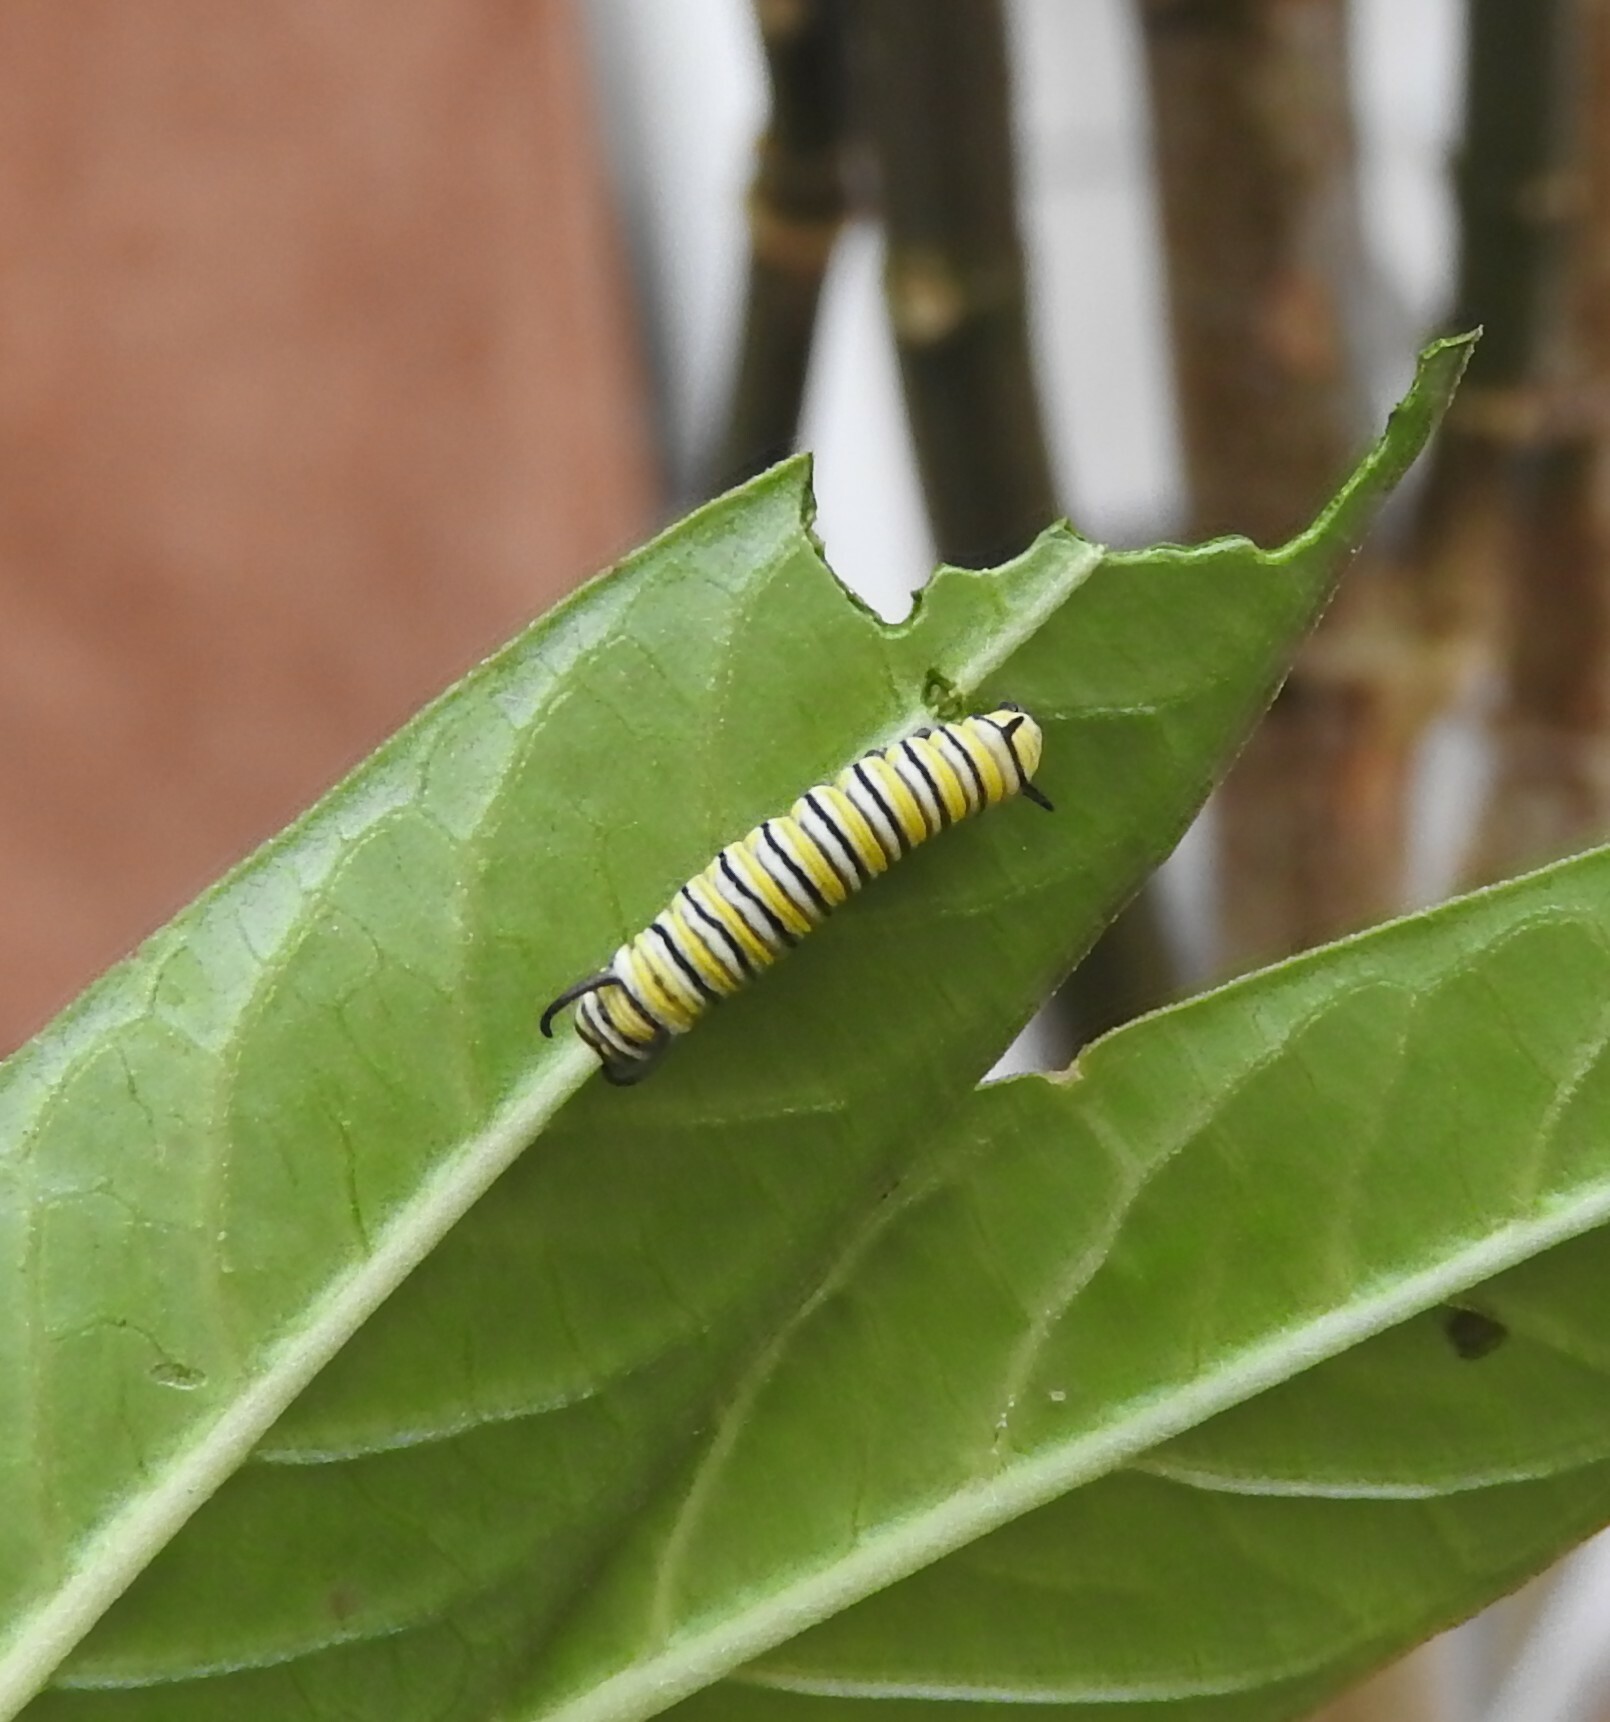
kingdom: Animalia
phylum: Arthropoda
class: Insecta
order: Lepidoptera
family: Nymphalidae
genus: Danaus
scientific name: Danaus plexippus
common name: Monarch
